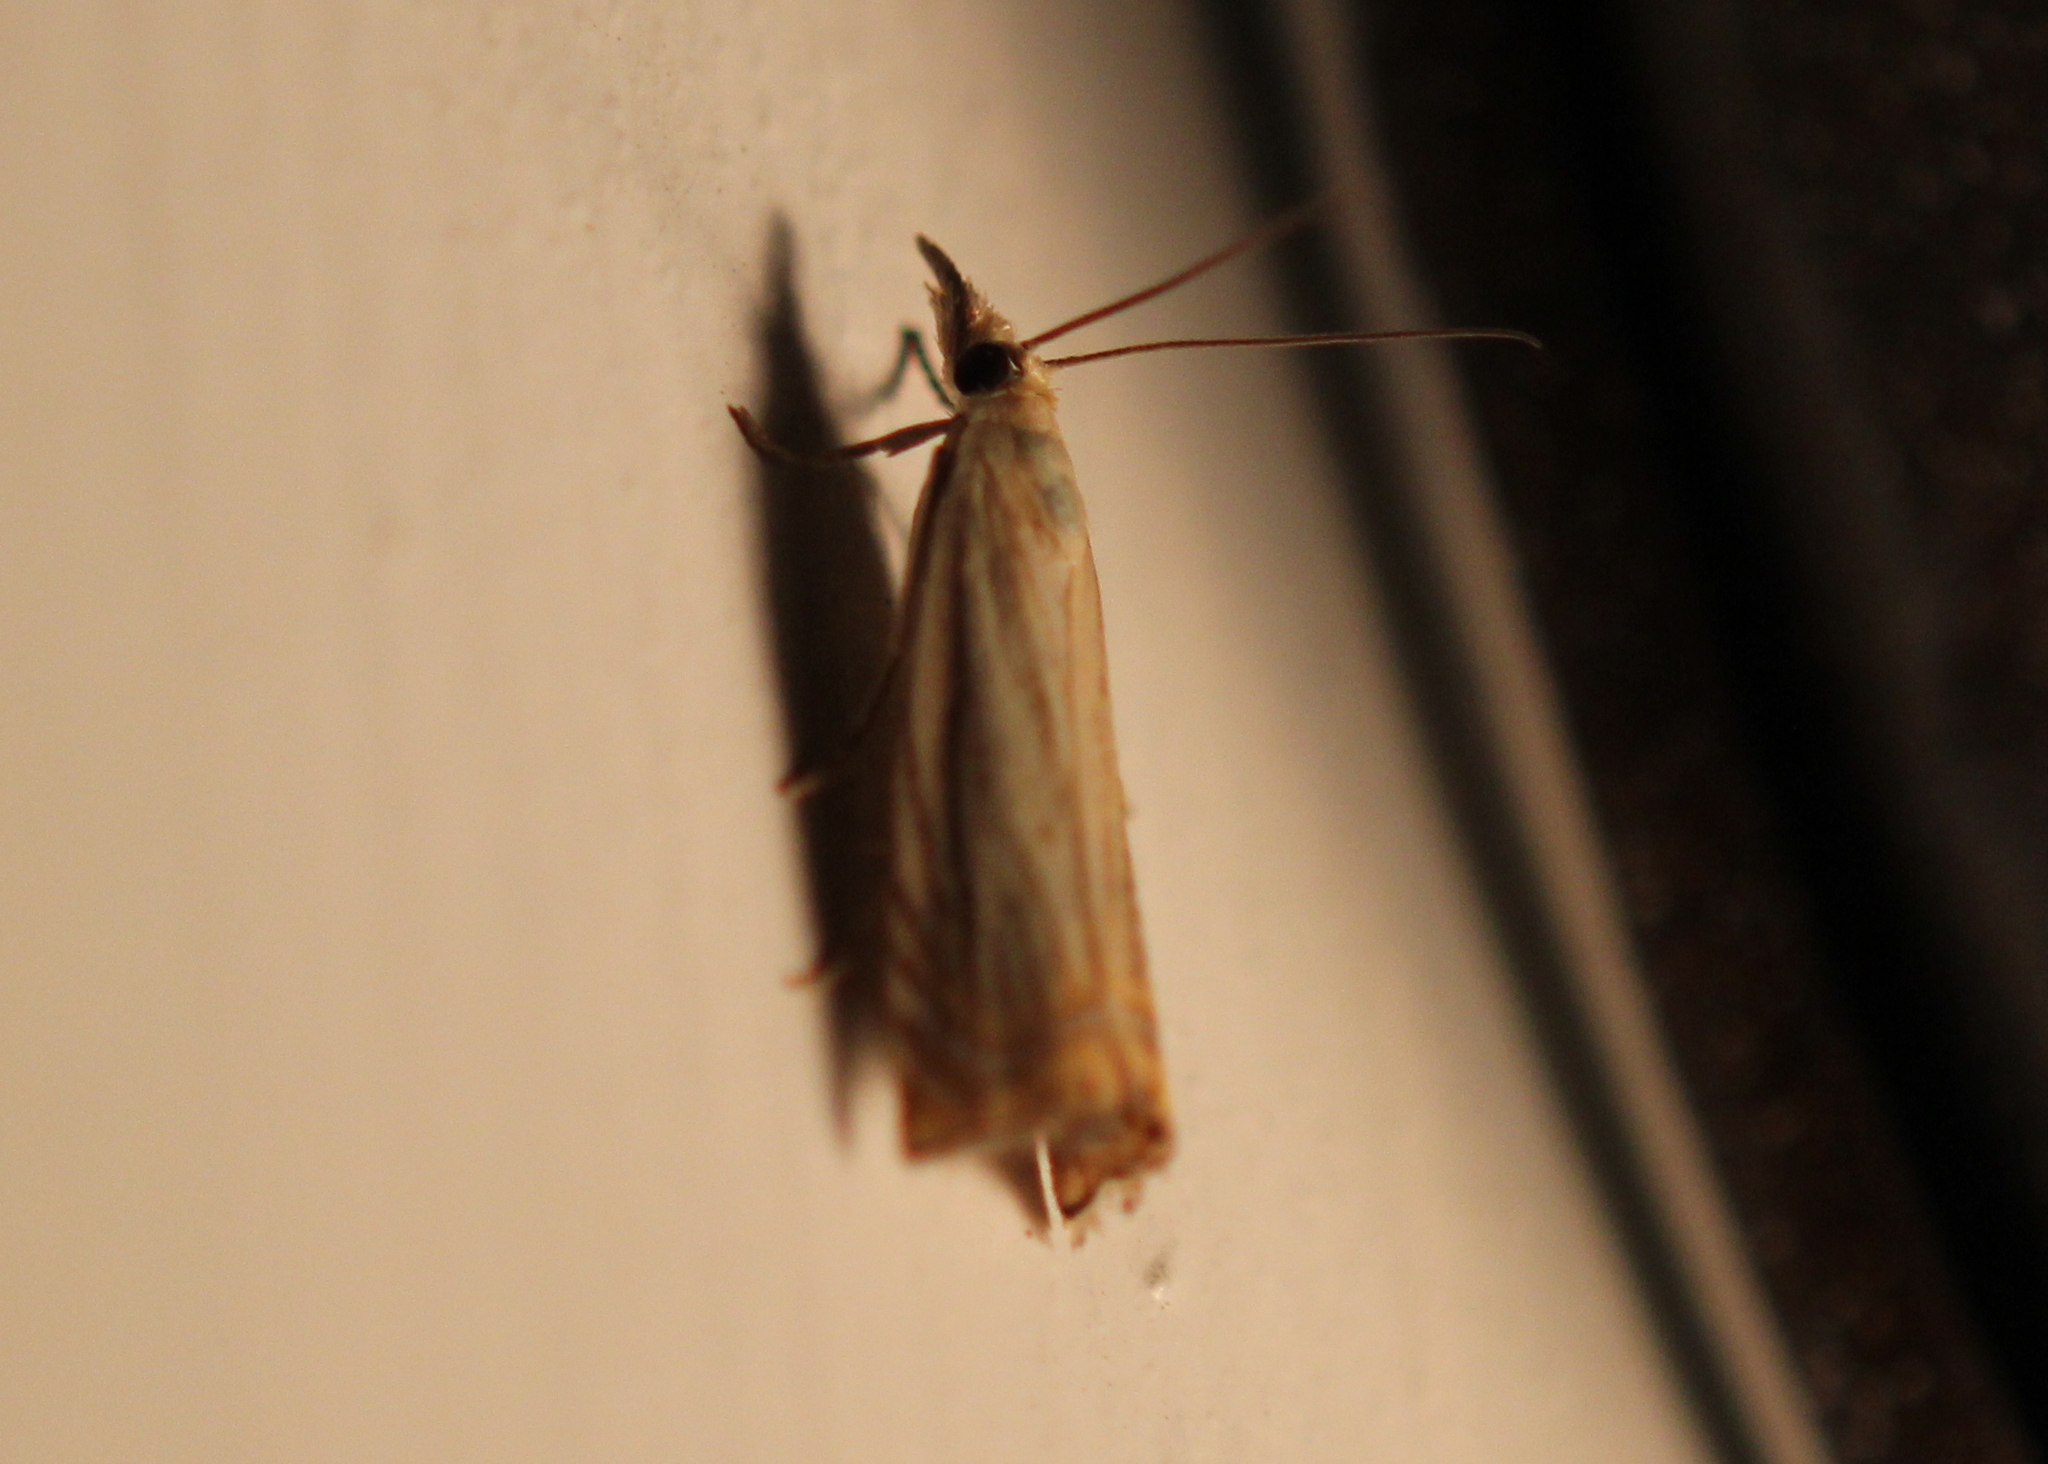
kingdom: Animalia
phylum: Arthropoda
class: Insecta
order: Lepidoptera
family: Crambidae
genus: Chrysoteuchia
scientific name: Chrysoteuchia topiarius
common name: Topiary grass-veneer
